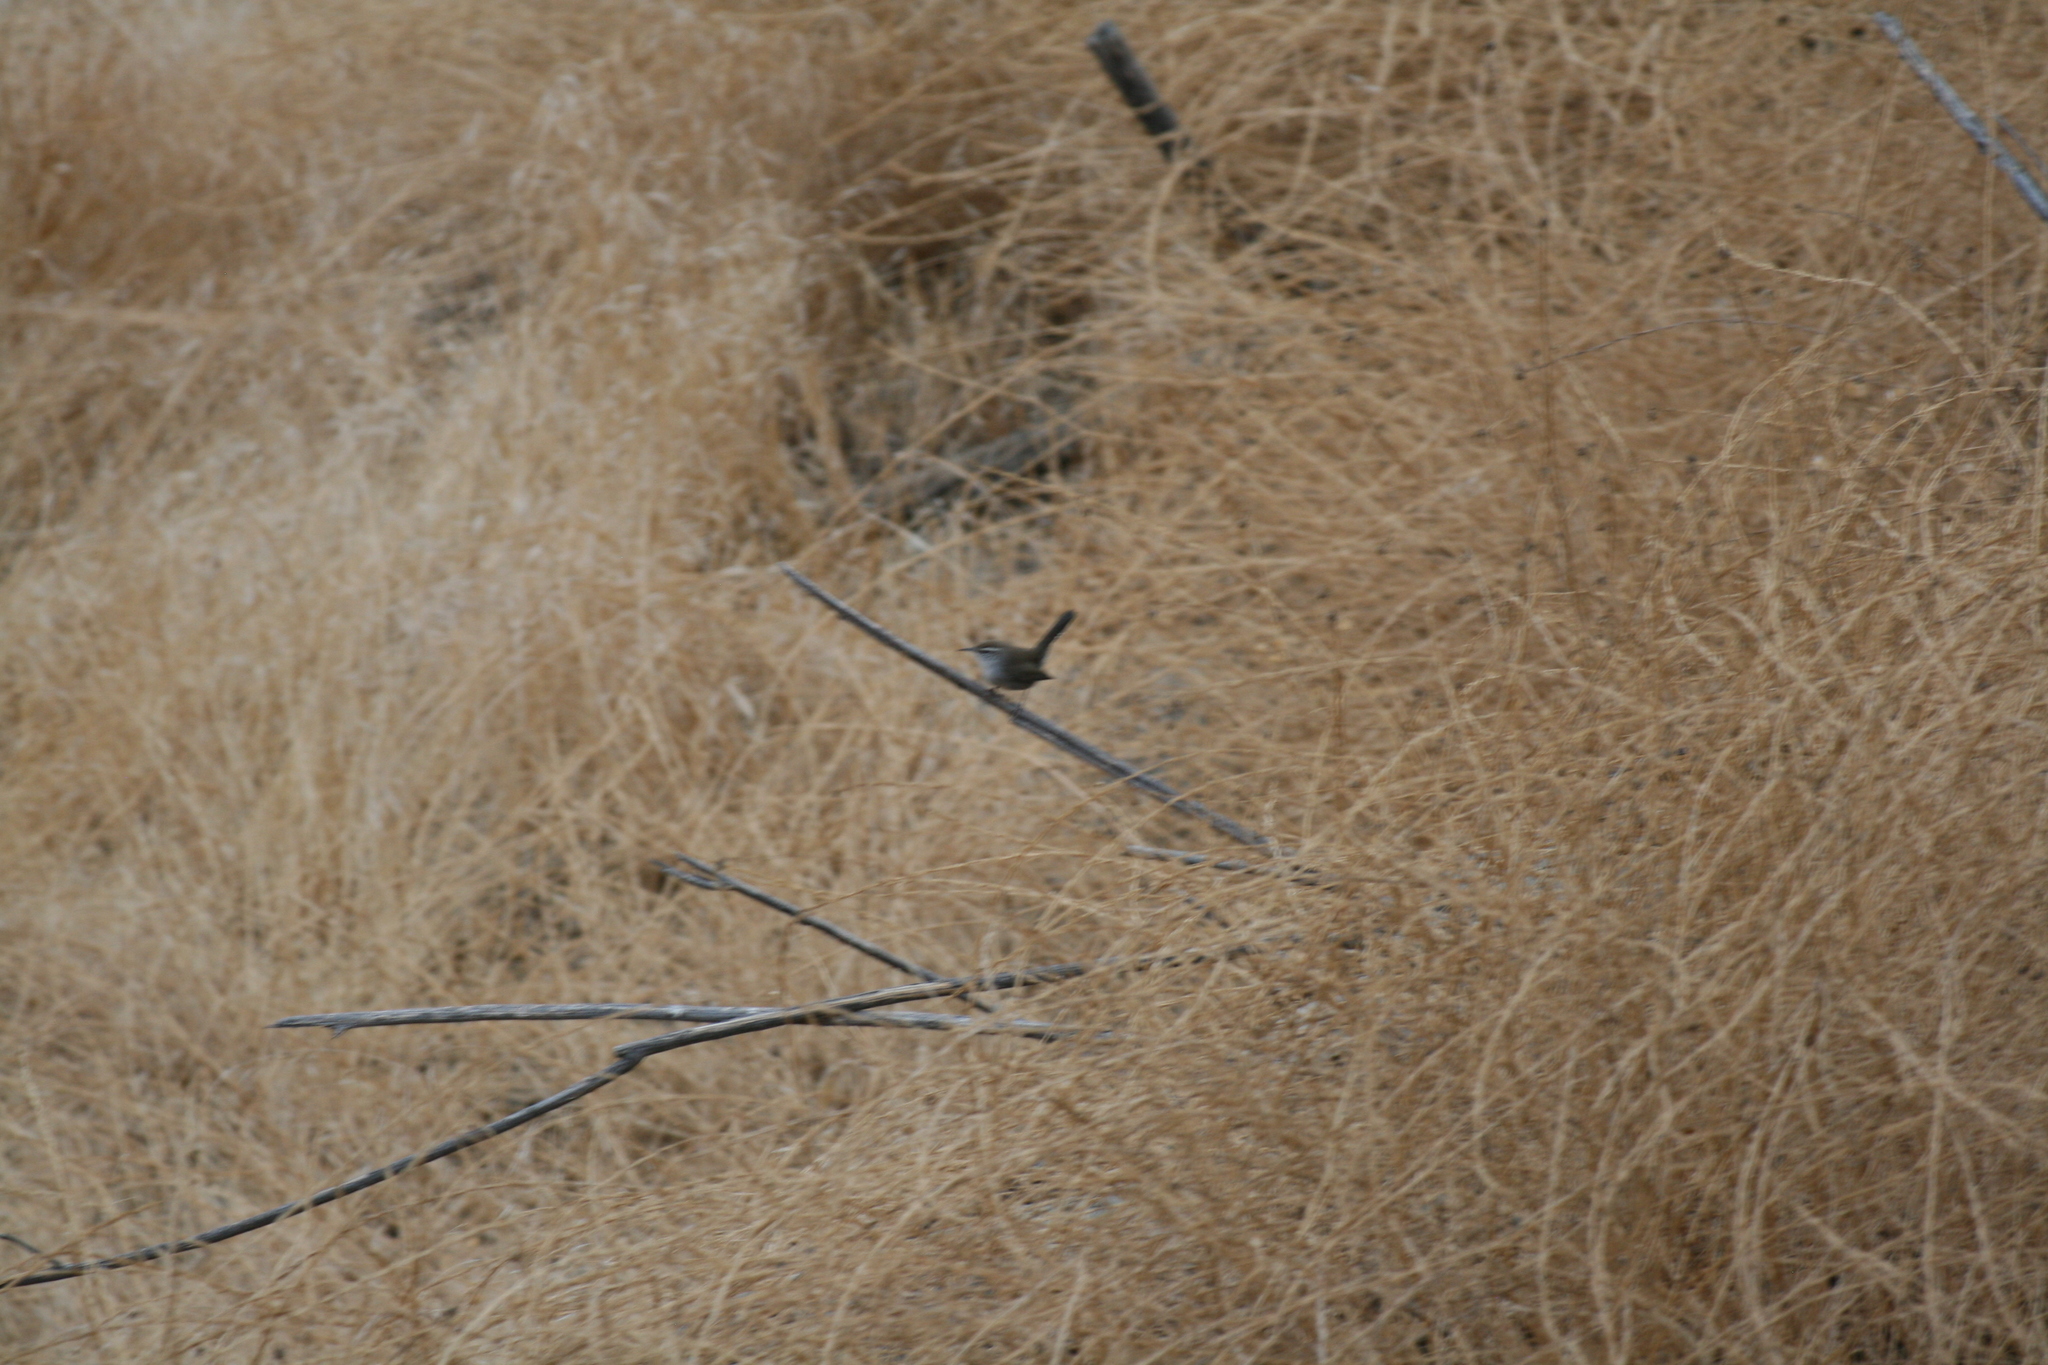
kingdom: Animalia
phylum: Chordata
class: Aves
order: Passeriformes
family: Troglodytidae
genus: Thryomanes
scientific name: Thryomanes bewickii
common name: Bewick's wren
